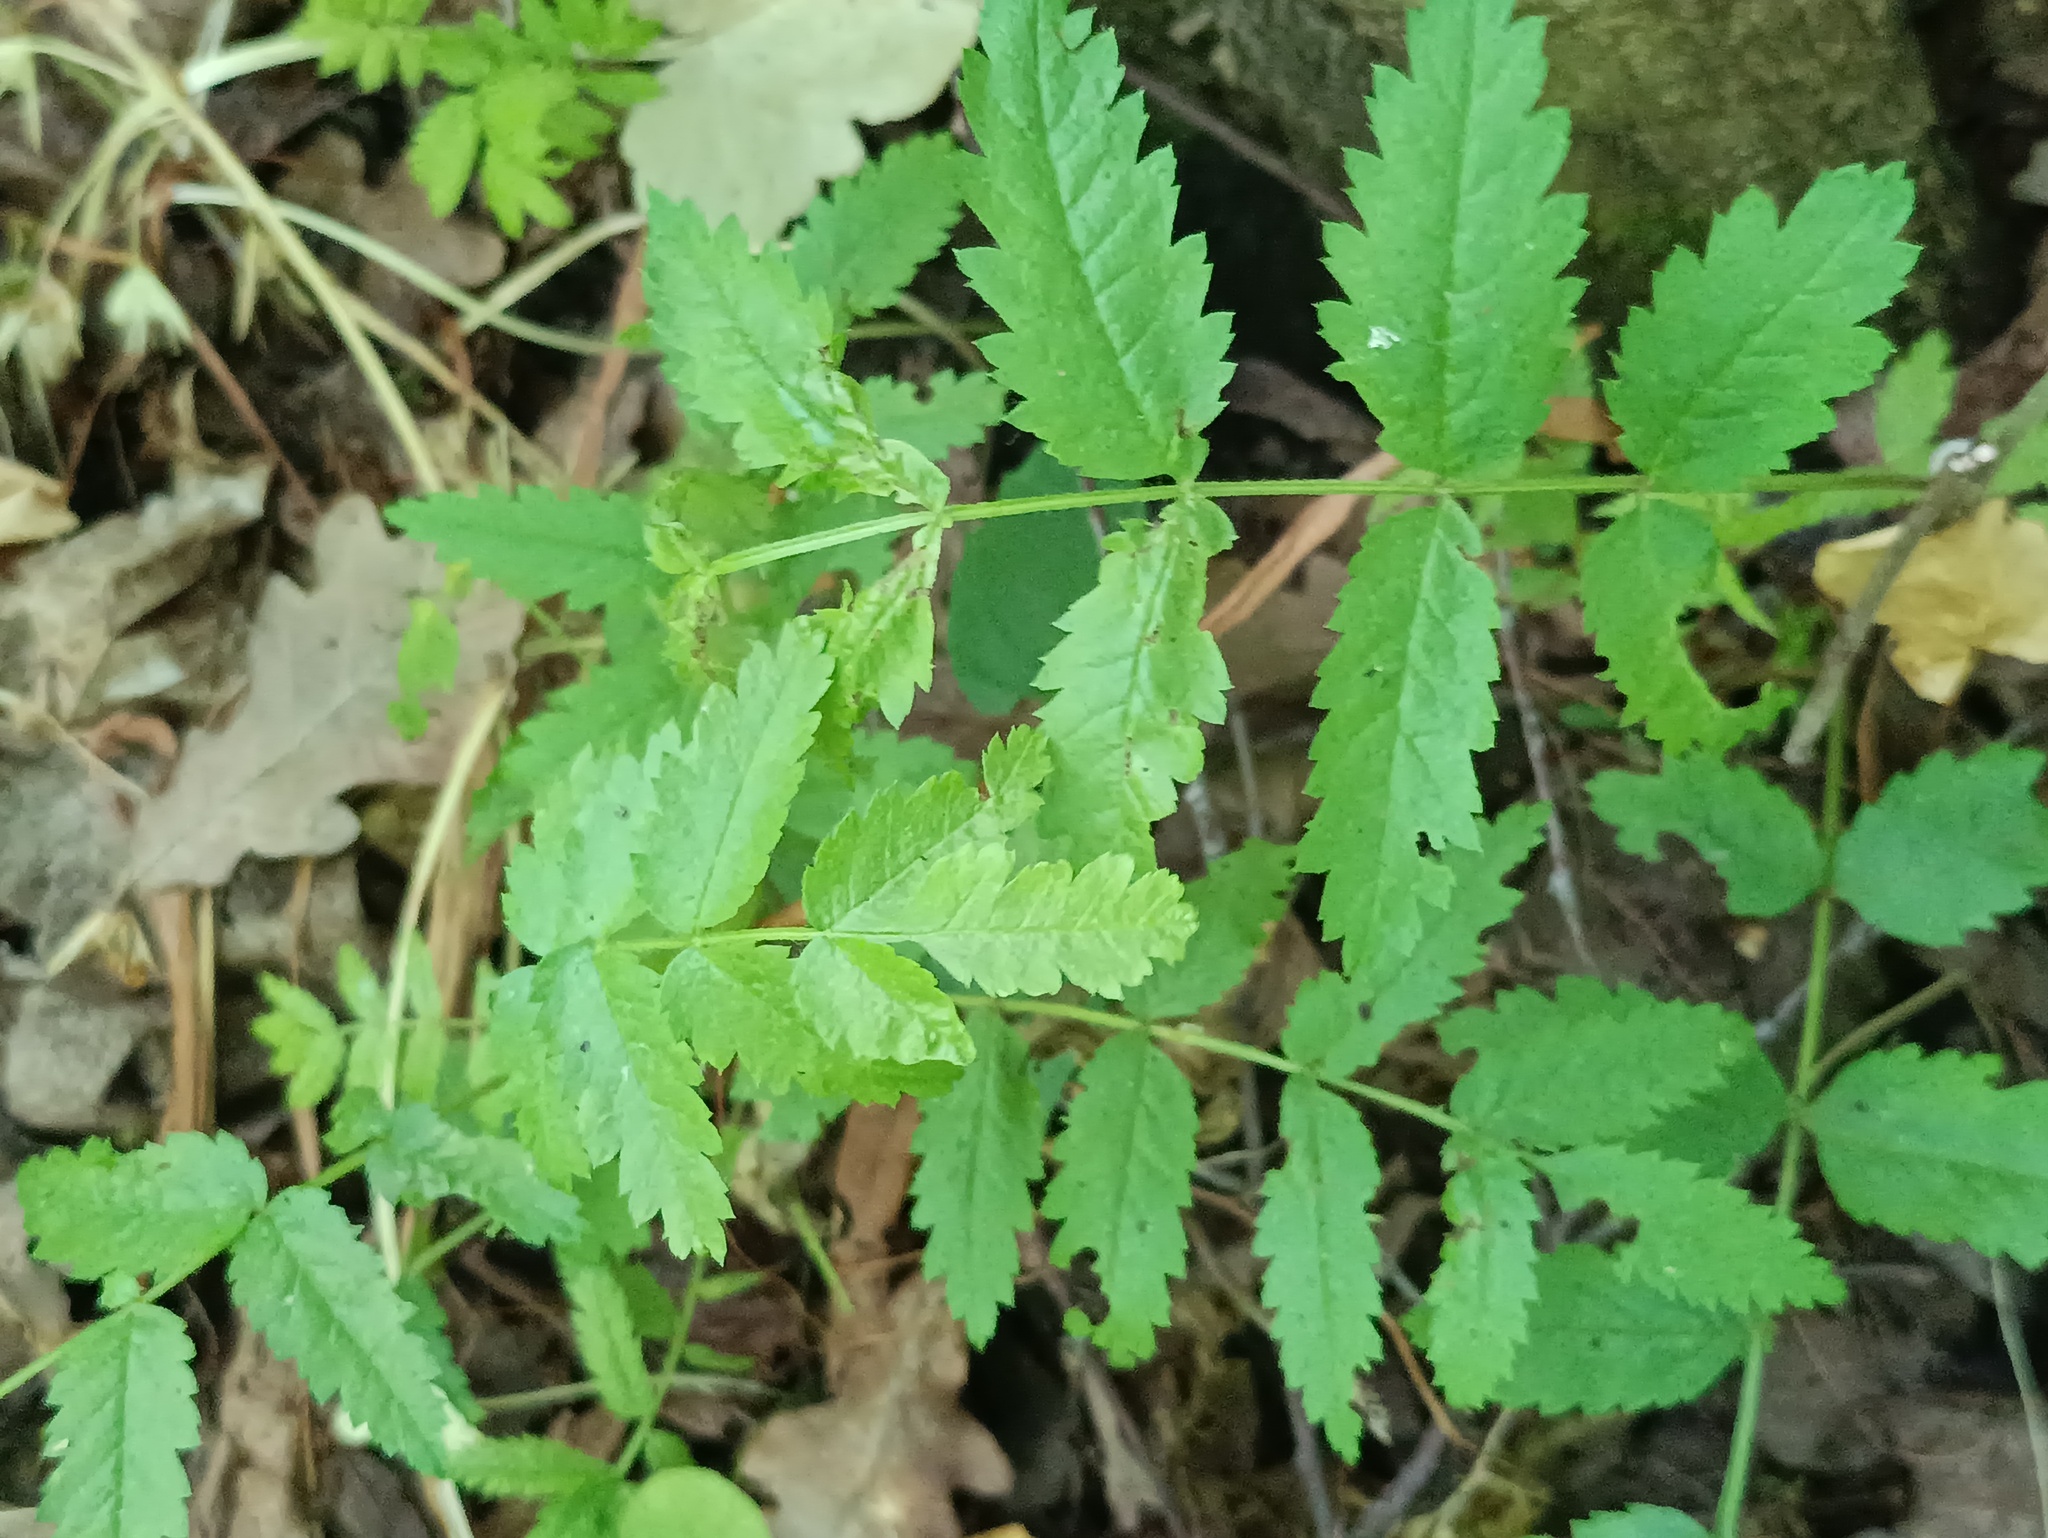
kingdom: Plantae
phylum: Tracheophyta
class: Magnoliopsida
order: Rosales
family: Rosaceae
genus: Sorbus
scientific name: Sorbus aucuparia
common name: Rowan
